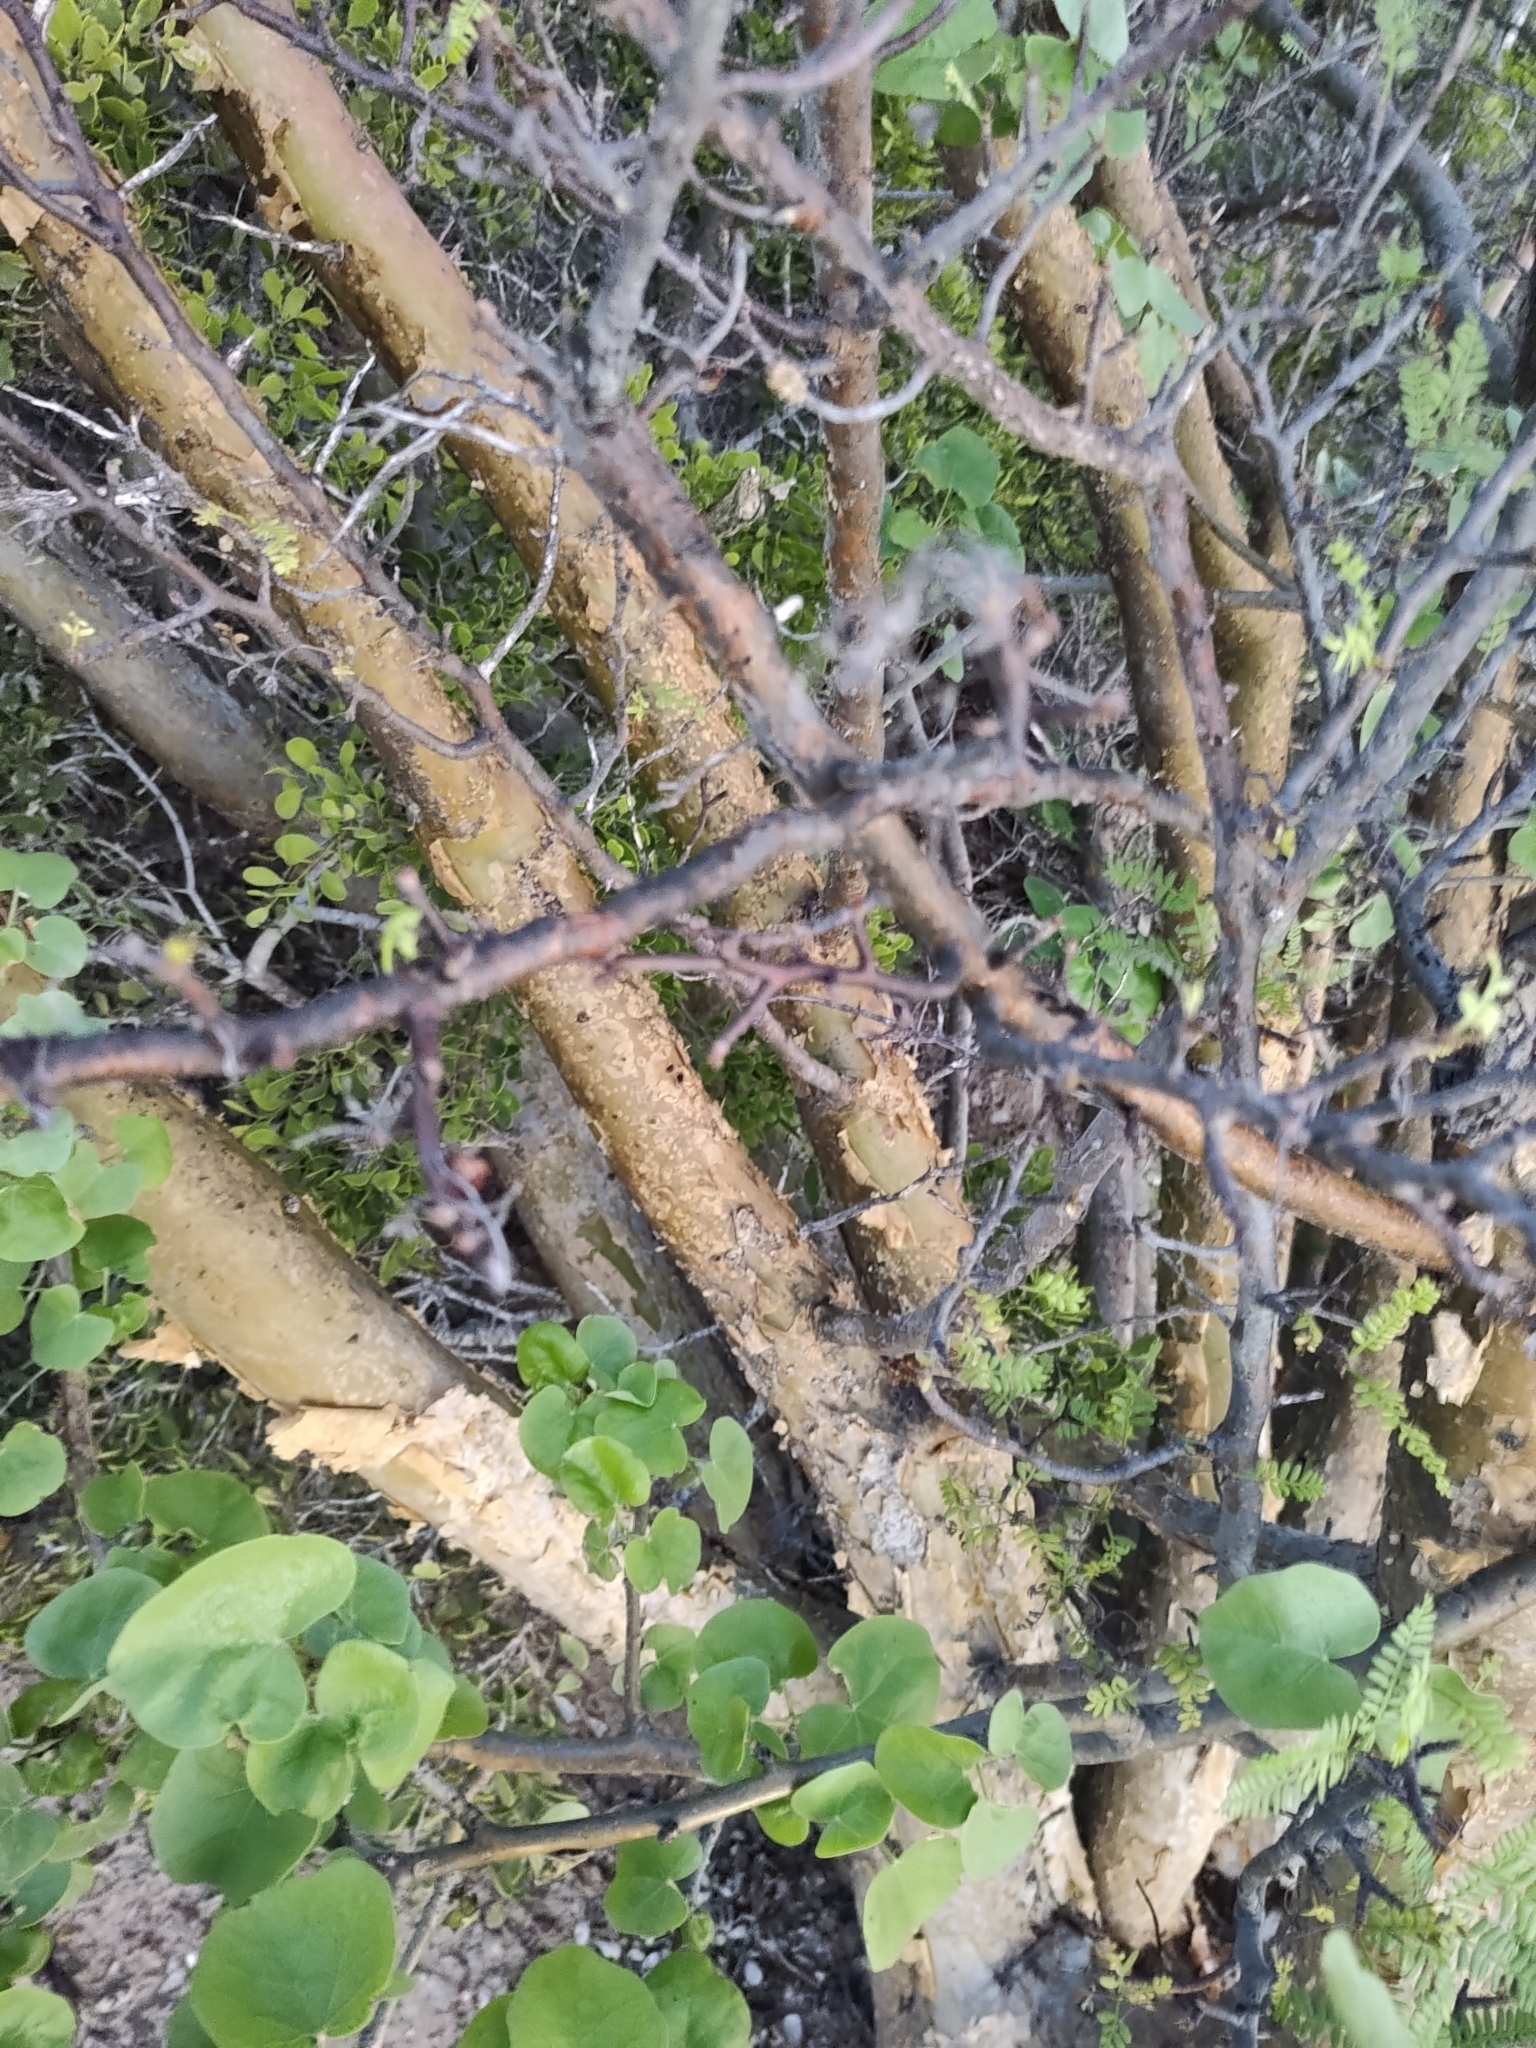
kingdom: Plantae
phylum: Tracheophyta
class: Magnoliopsida
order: Sapindales
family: Burseraceae
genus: Bursera
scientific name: Bursera microphylla
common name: Elephant tree
